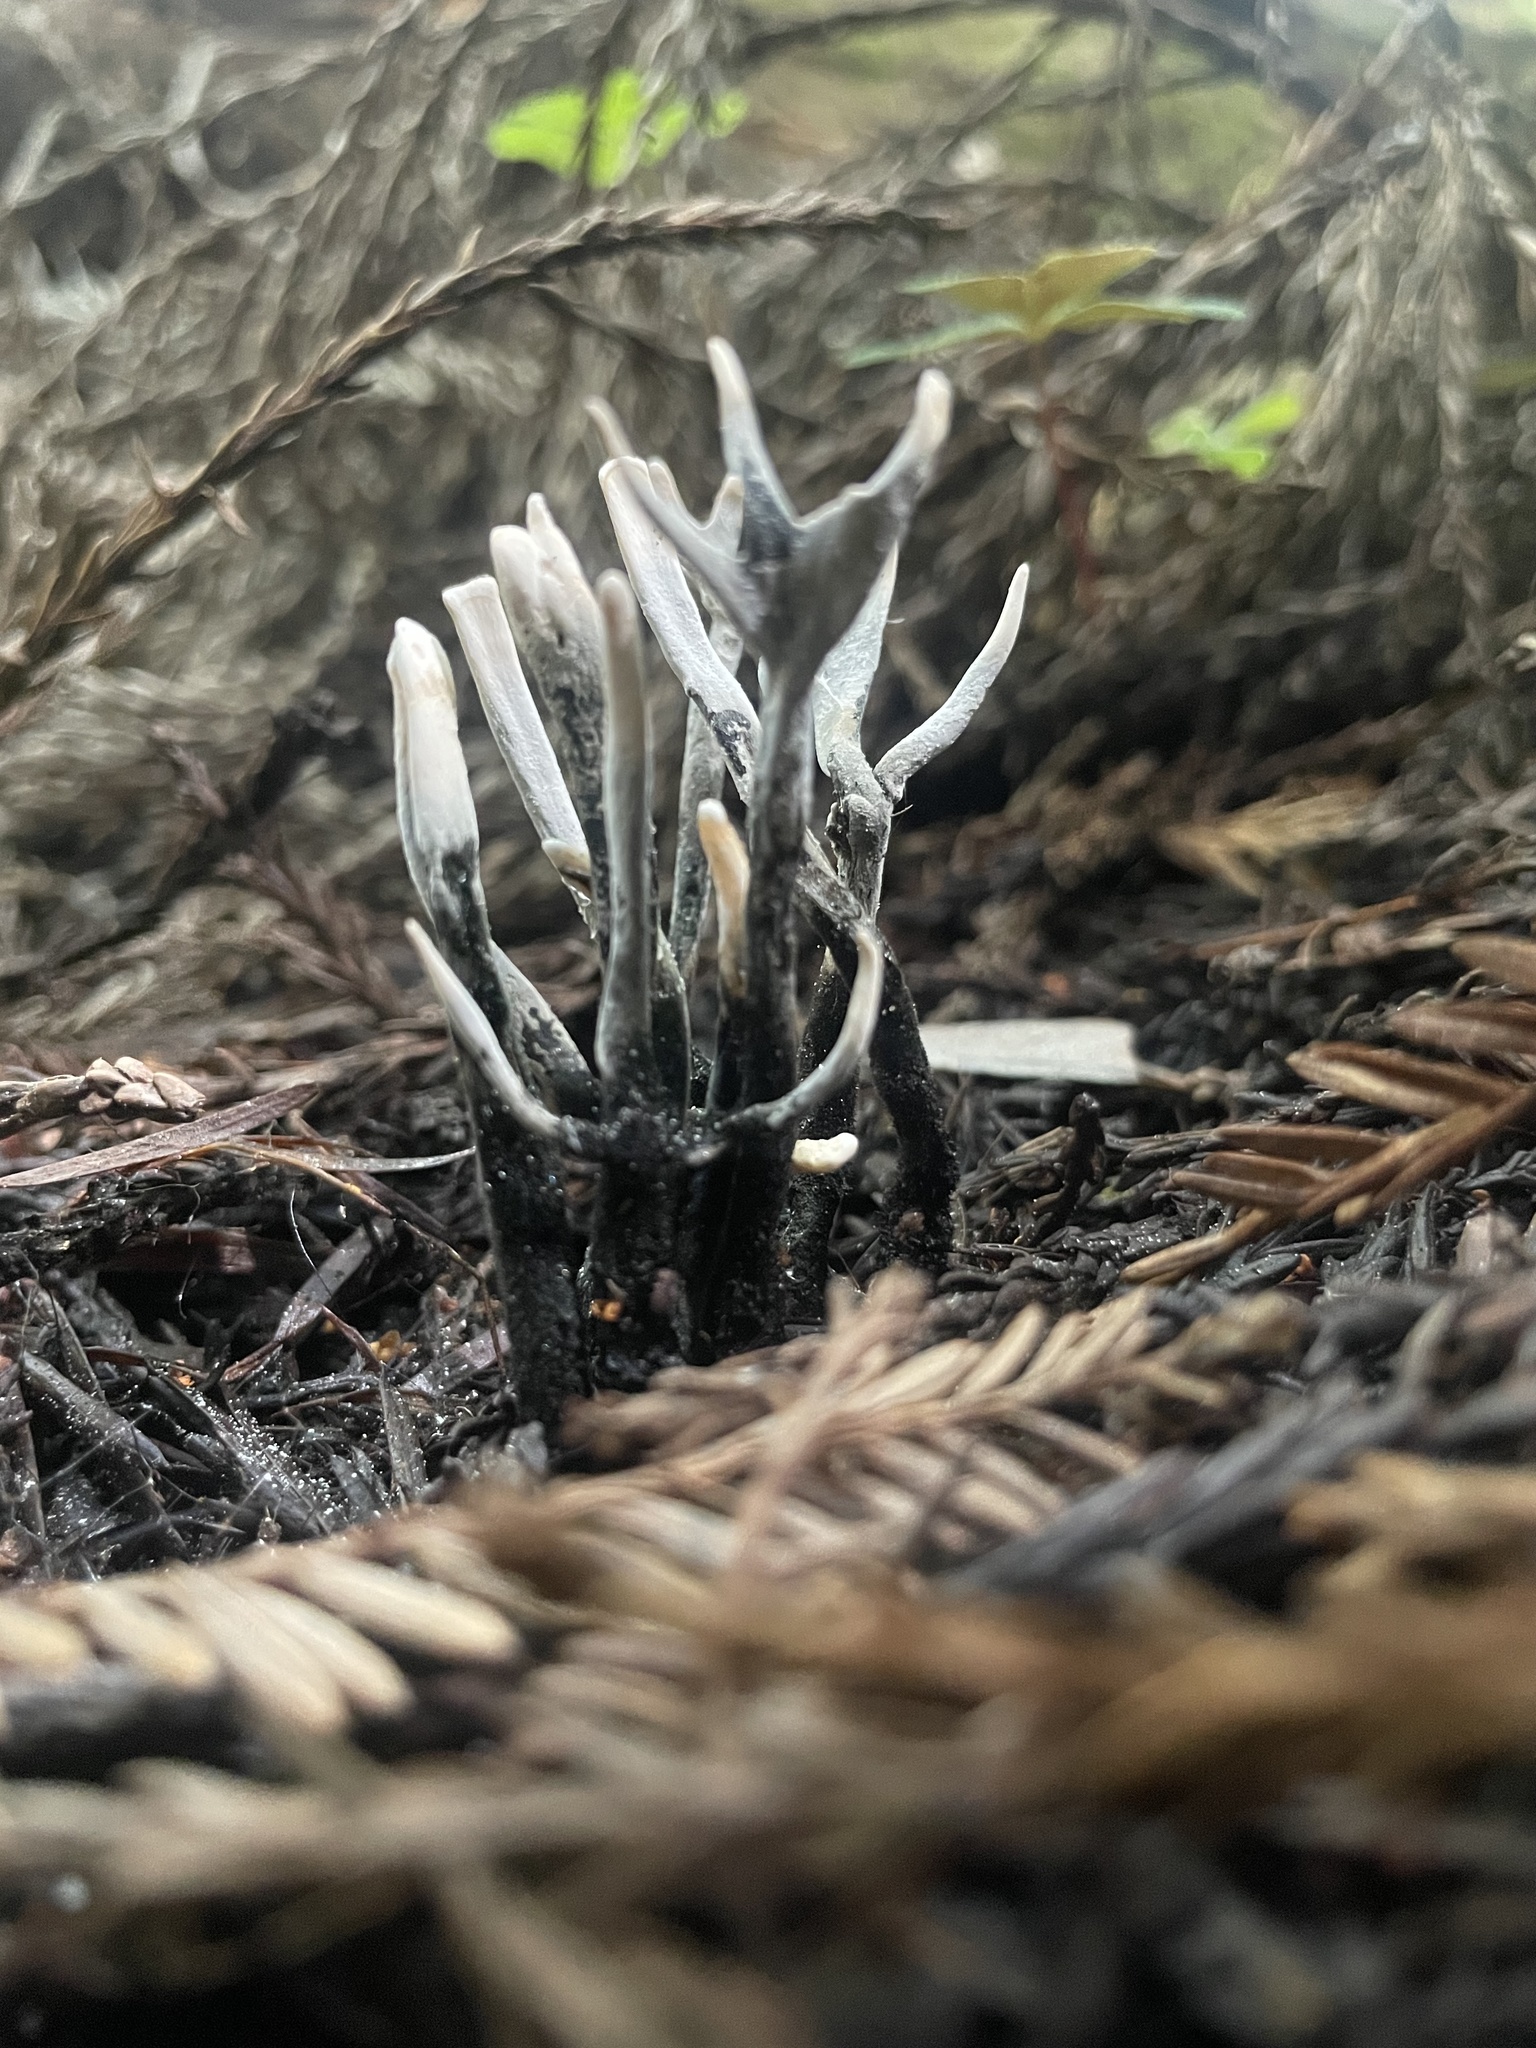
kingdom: Fungi
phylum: Ascomycota
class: Sordariomycetes
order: Xylariales
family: Xylariaceae
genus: Xylaria
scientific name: Xylaria hypoxylon
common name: Candle-snuff fungus
